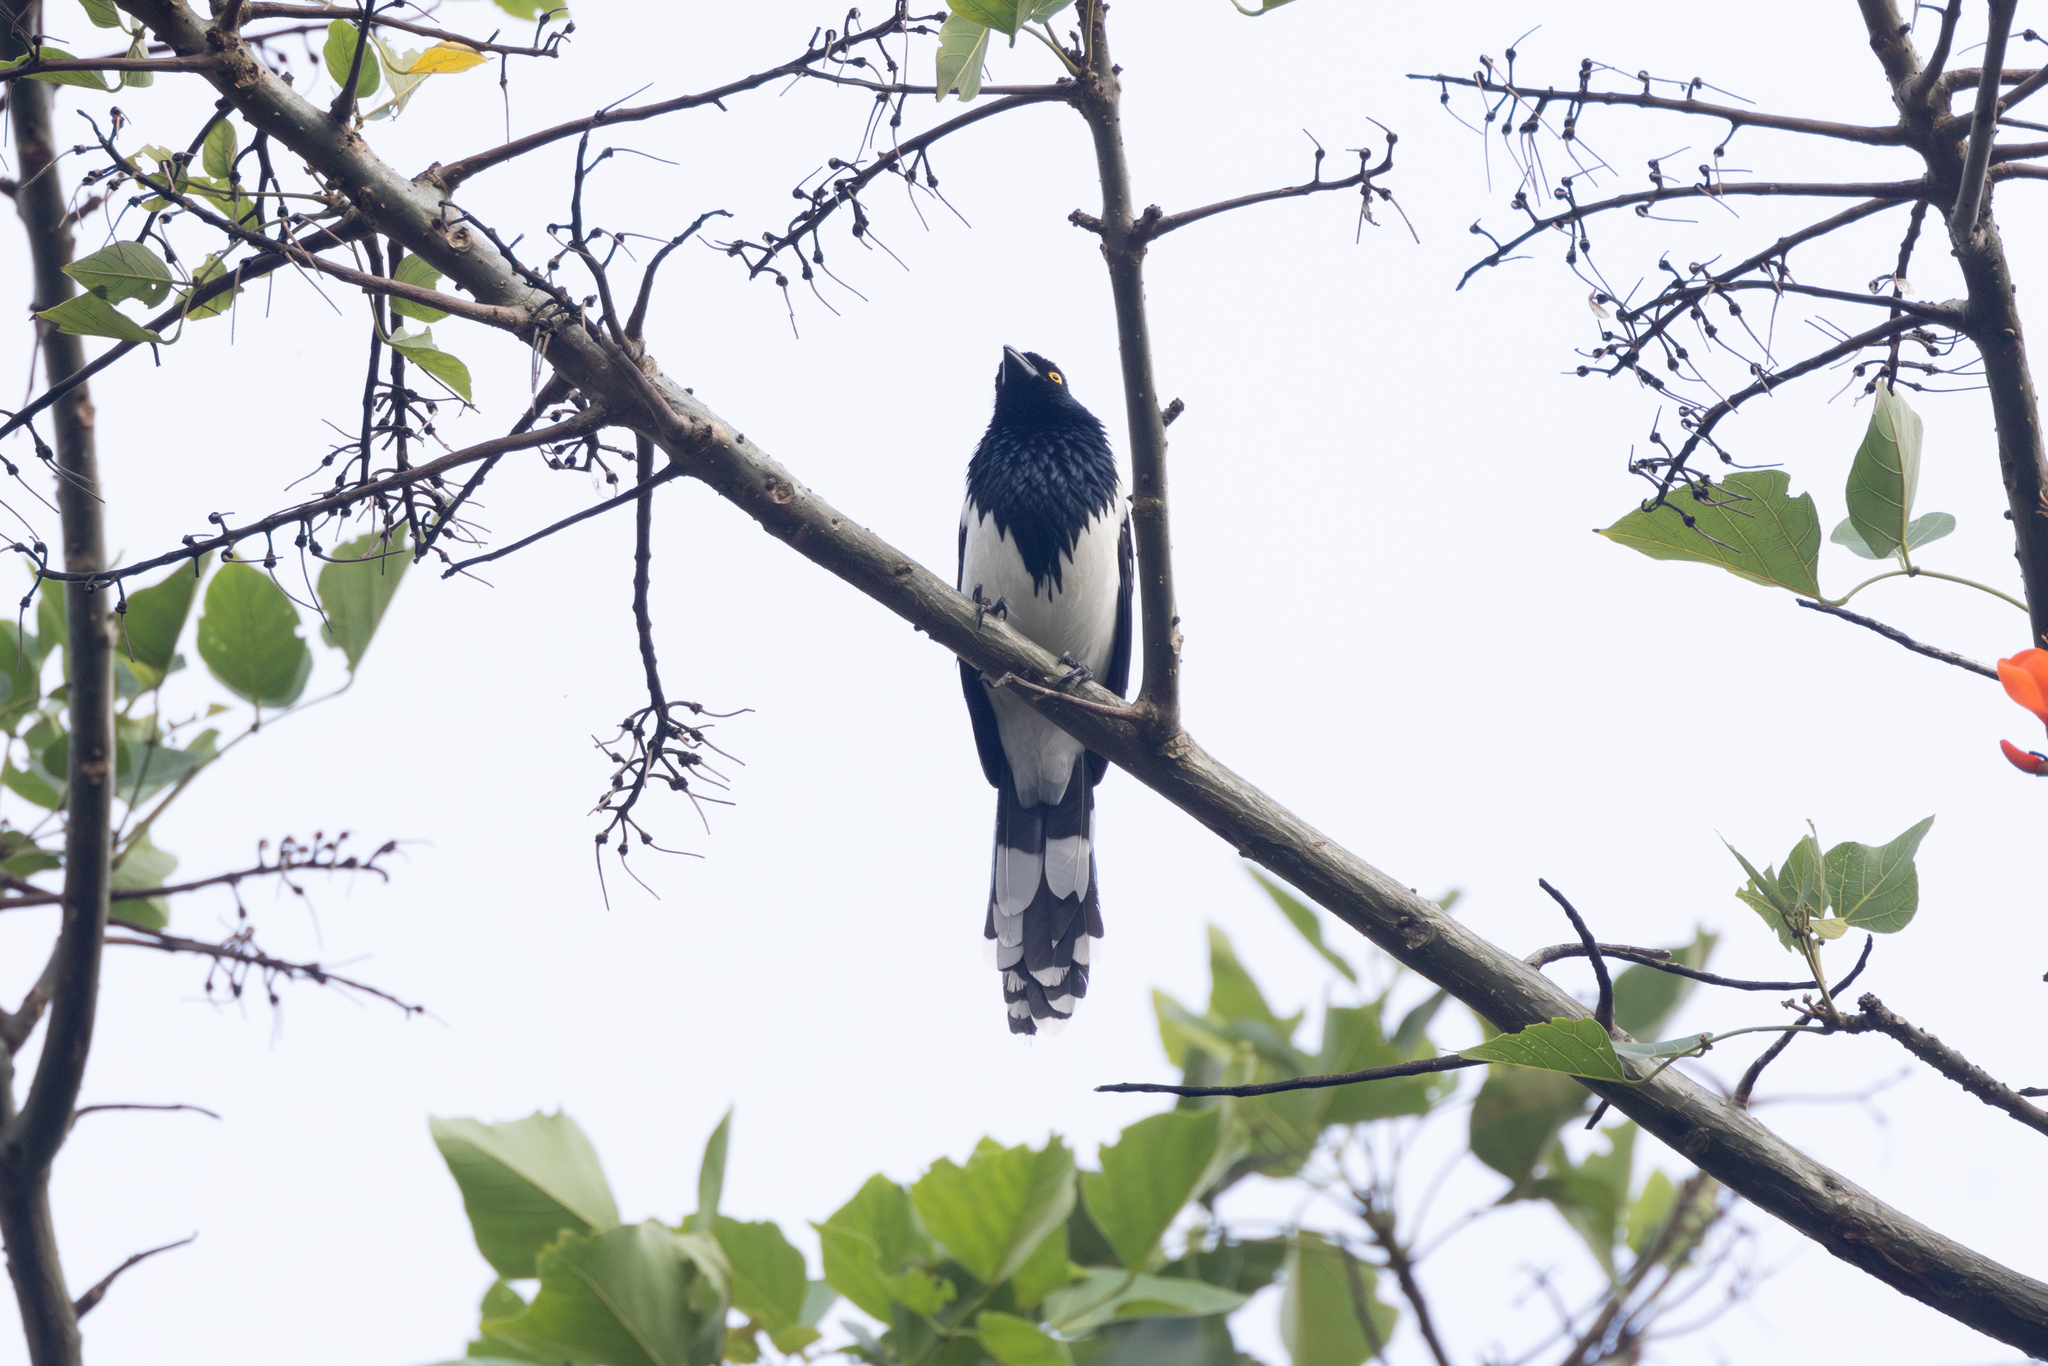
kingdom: Animalia
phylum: Chordata
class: Aves
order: Passeriformes
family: Thraupidae
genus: Cissopis
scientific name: Cissopis leverianus
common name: Magpie tanager
